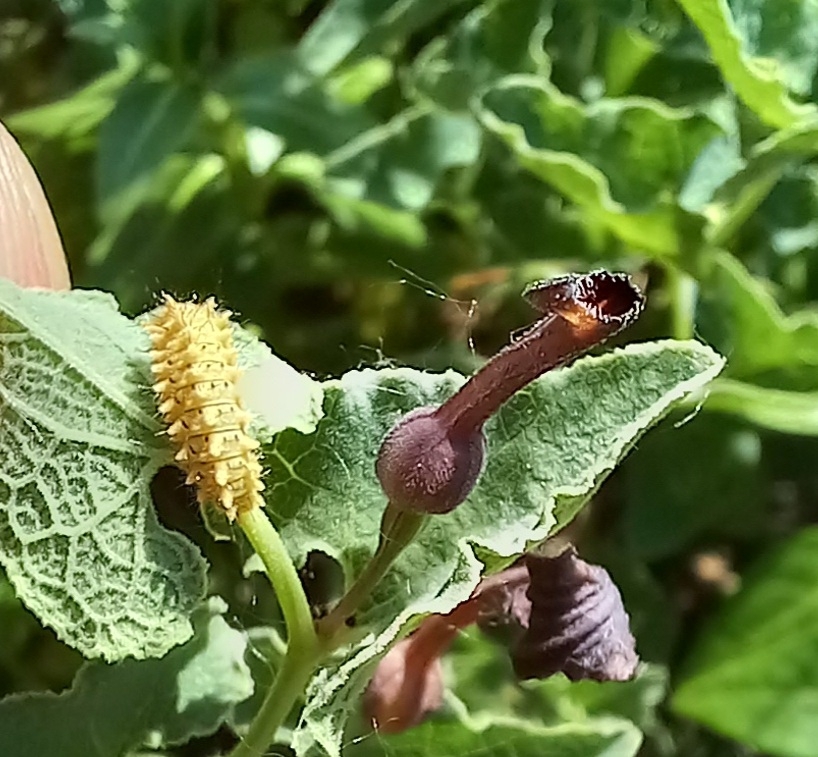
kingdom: Animalia
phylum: Arthropoda
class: Insecta
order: Lepidoptera
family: Papilionidae
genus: Zerynthia
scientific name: Zerynthia rumina
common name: Spanish festoon
